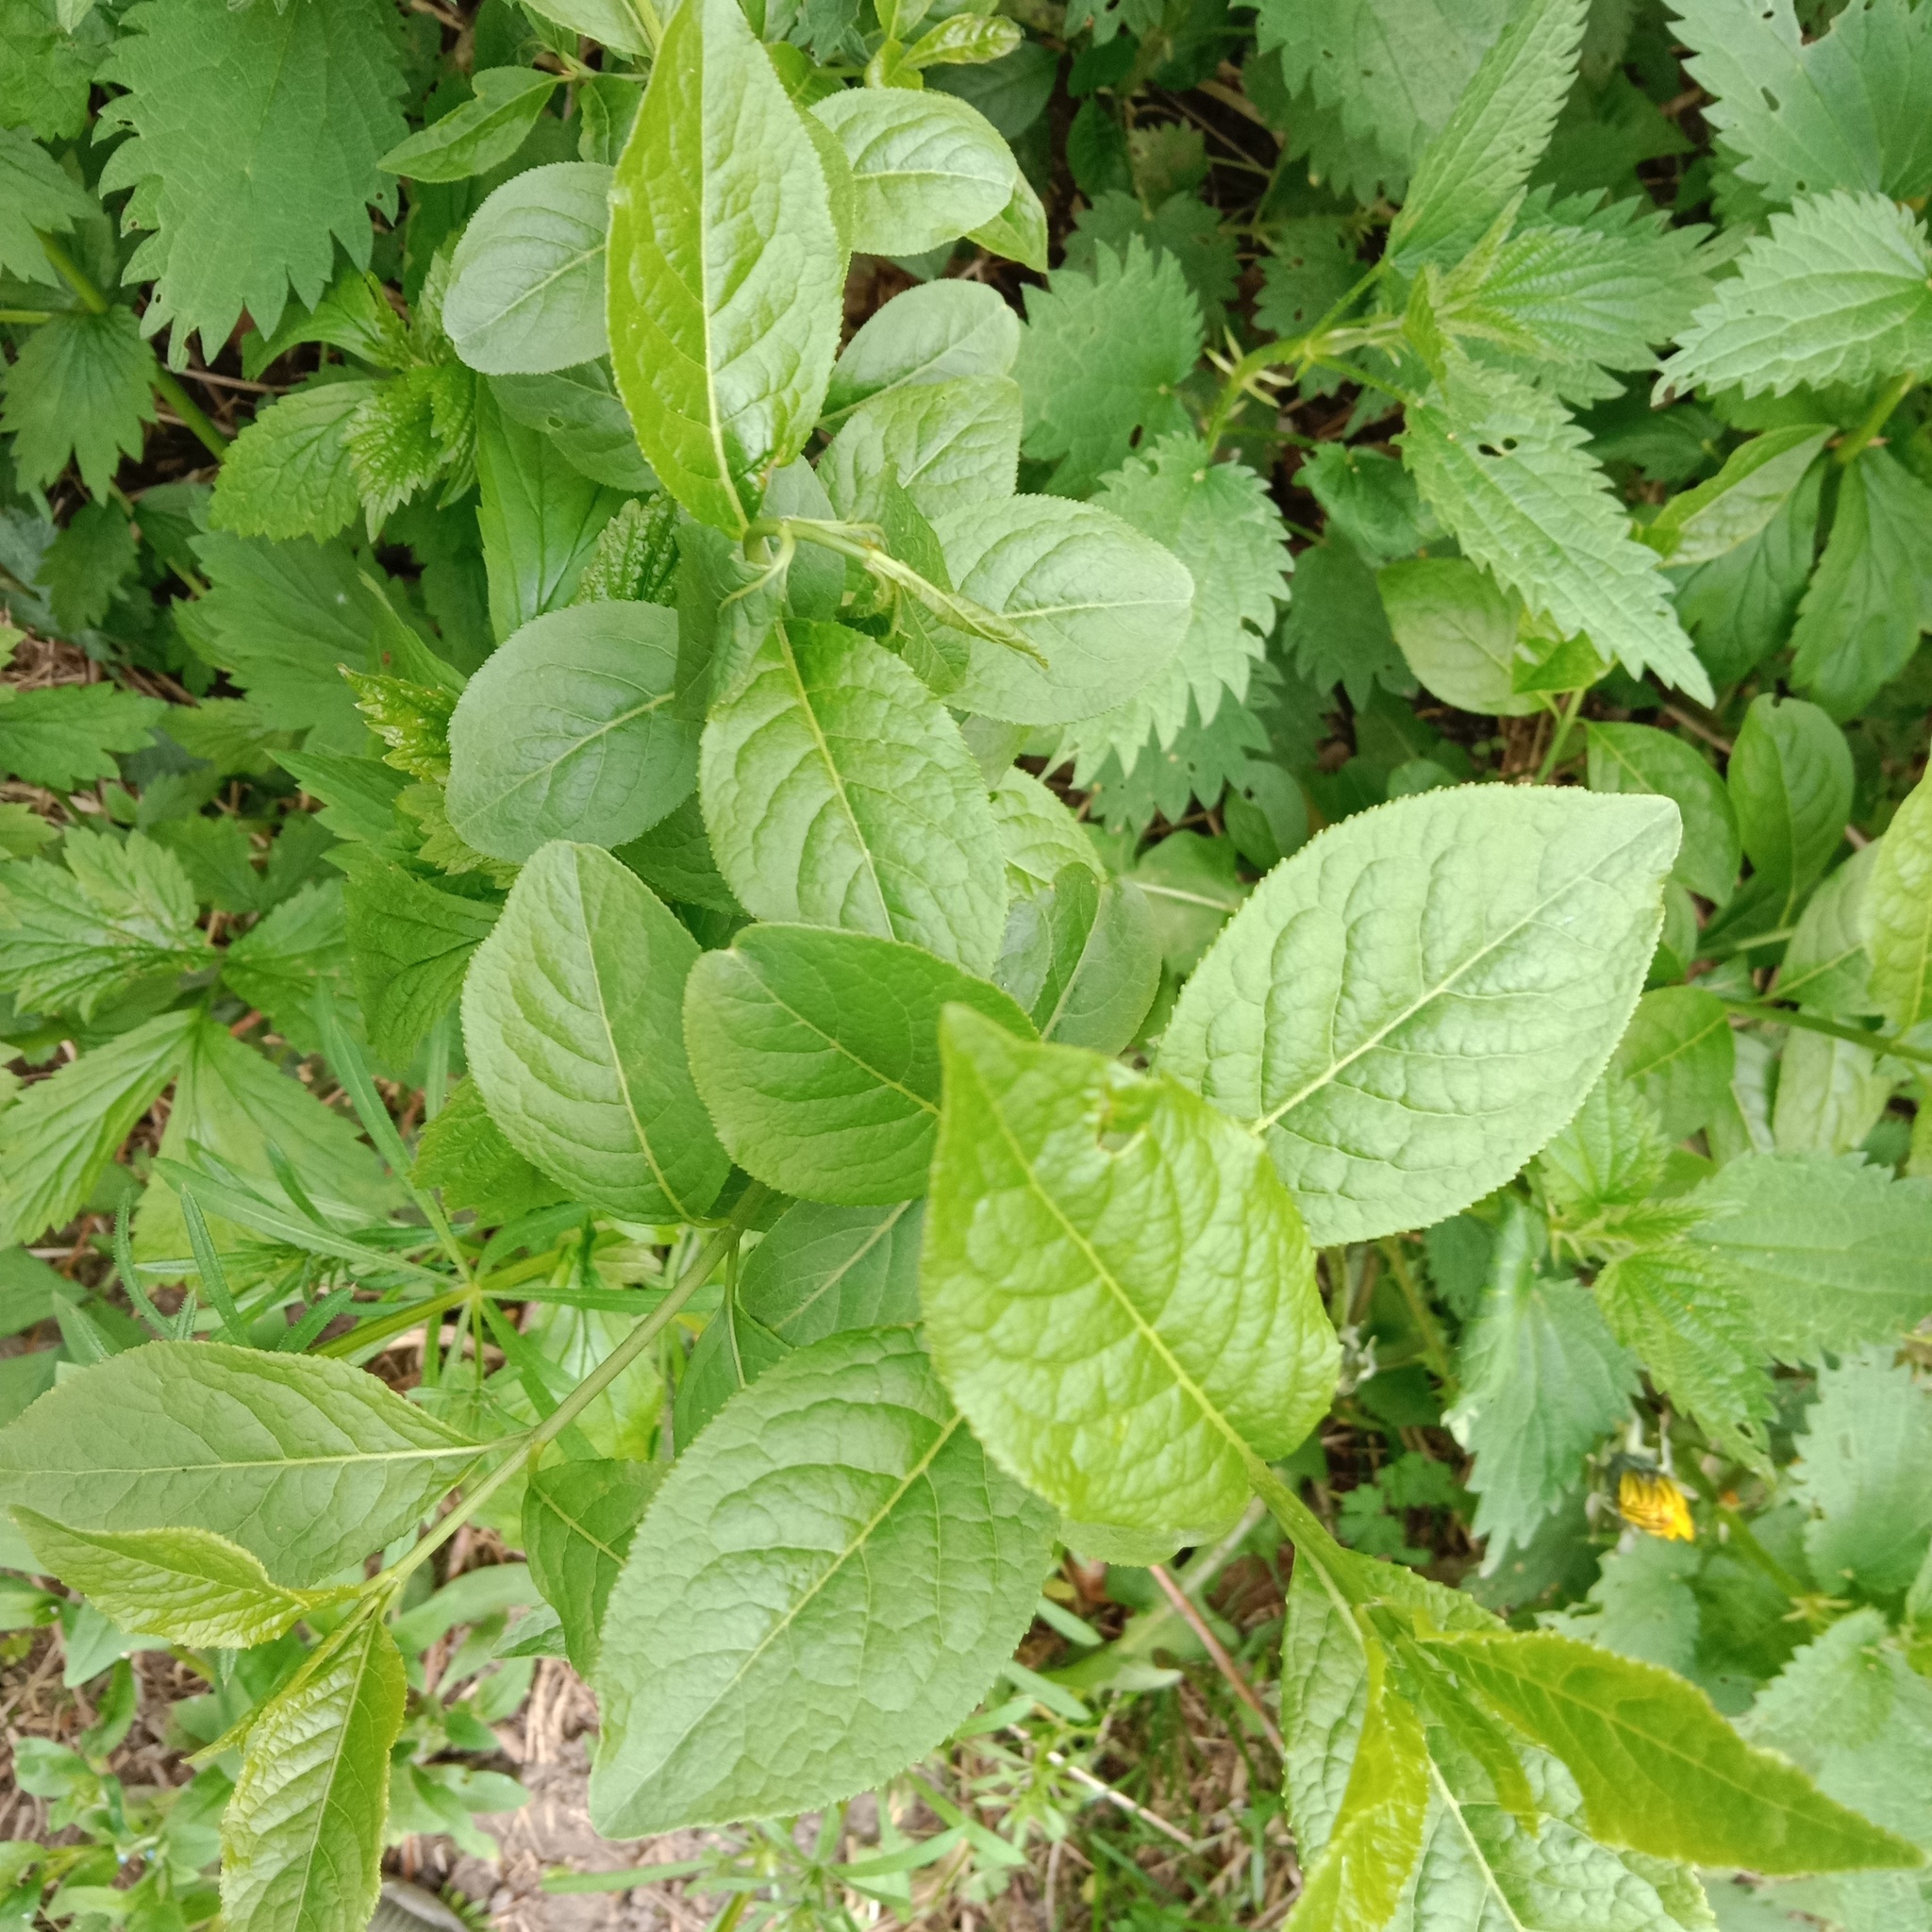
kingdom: Plantae
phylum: Tracheophyta
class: Magnoliopsida
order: Celastrales
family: Celastraceae
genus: Euonymus
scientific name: Euonymus europaeus
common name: Spindle
